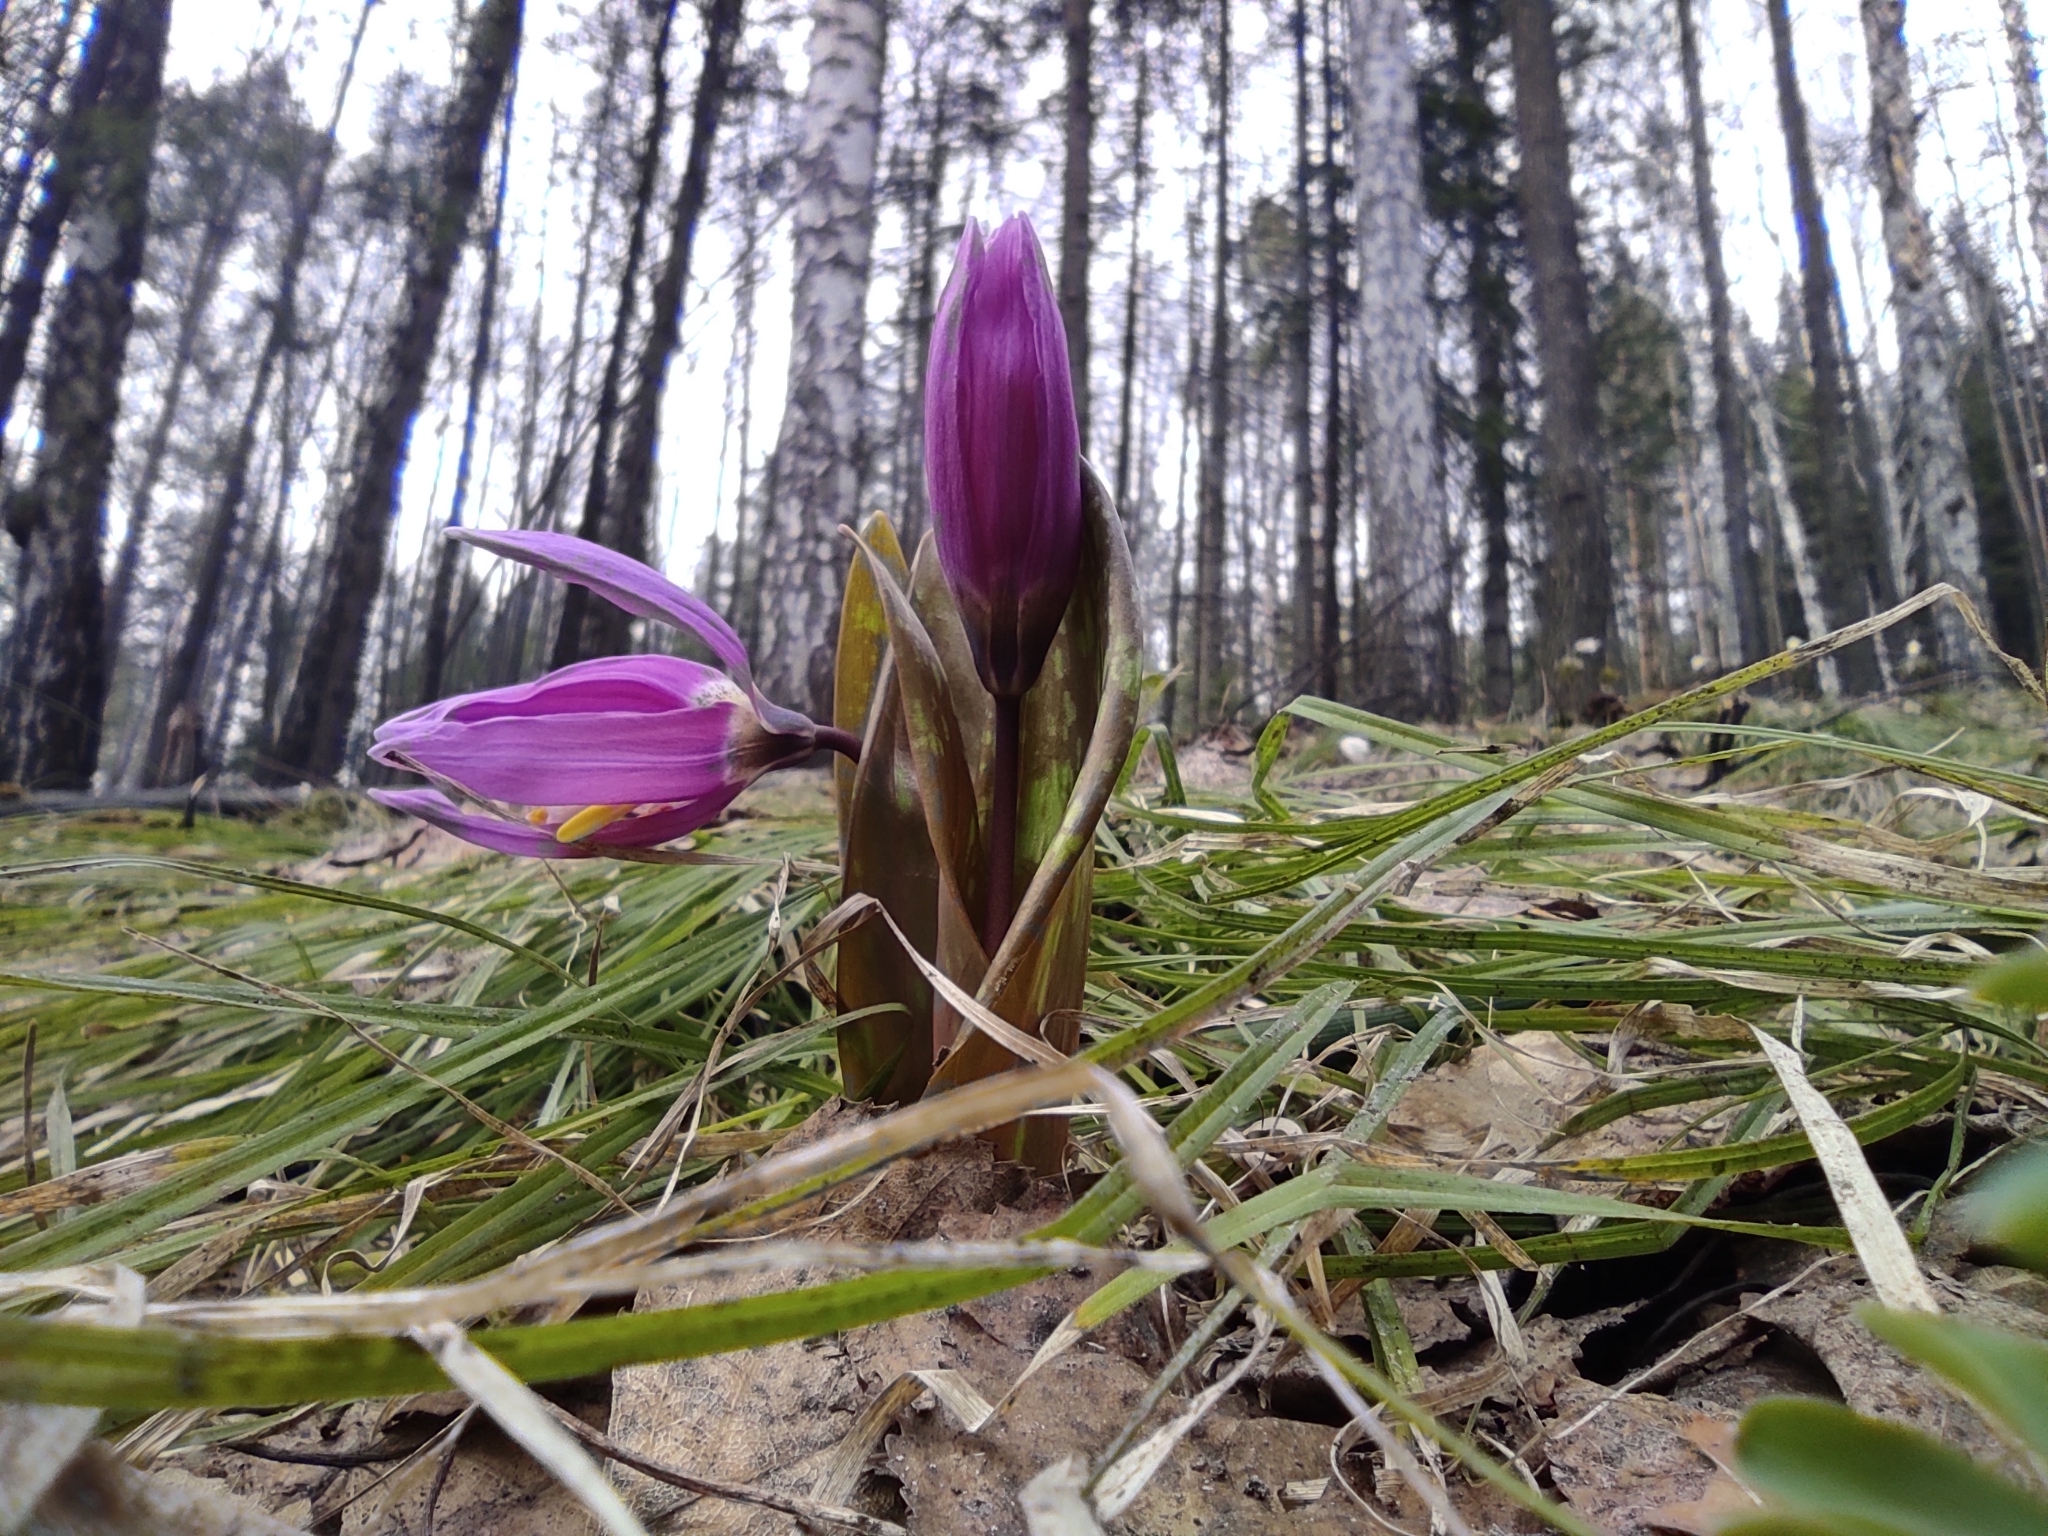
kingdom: Plantae
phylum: Tracheophyta
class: Liliopsida
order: Liliales
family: Liliaceae
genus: Erythronium
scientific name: Erythronium sibiricum
